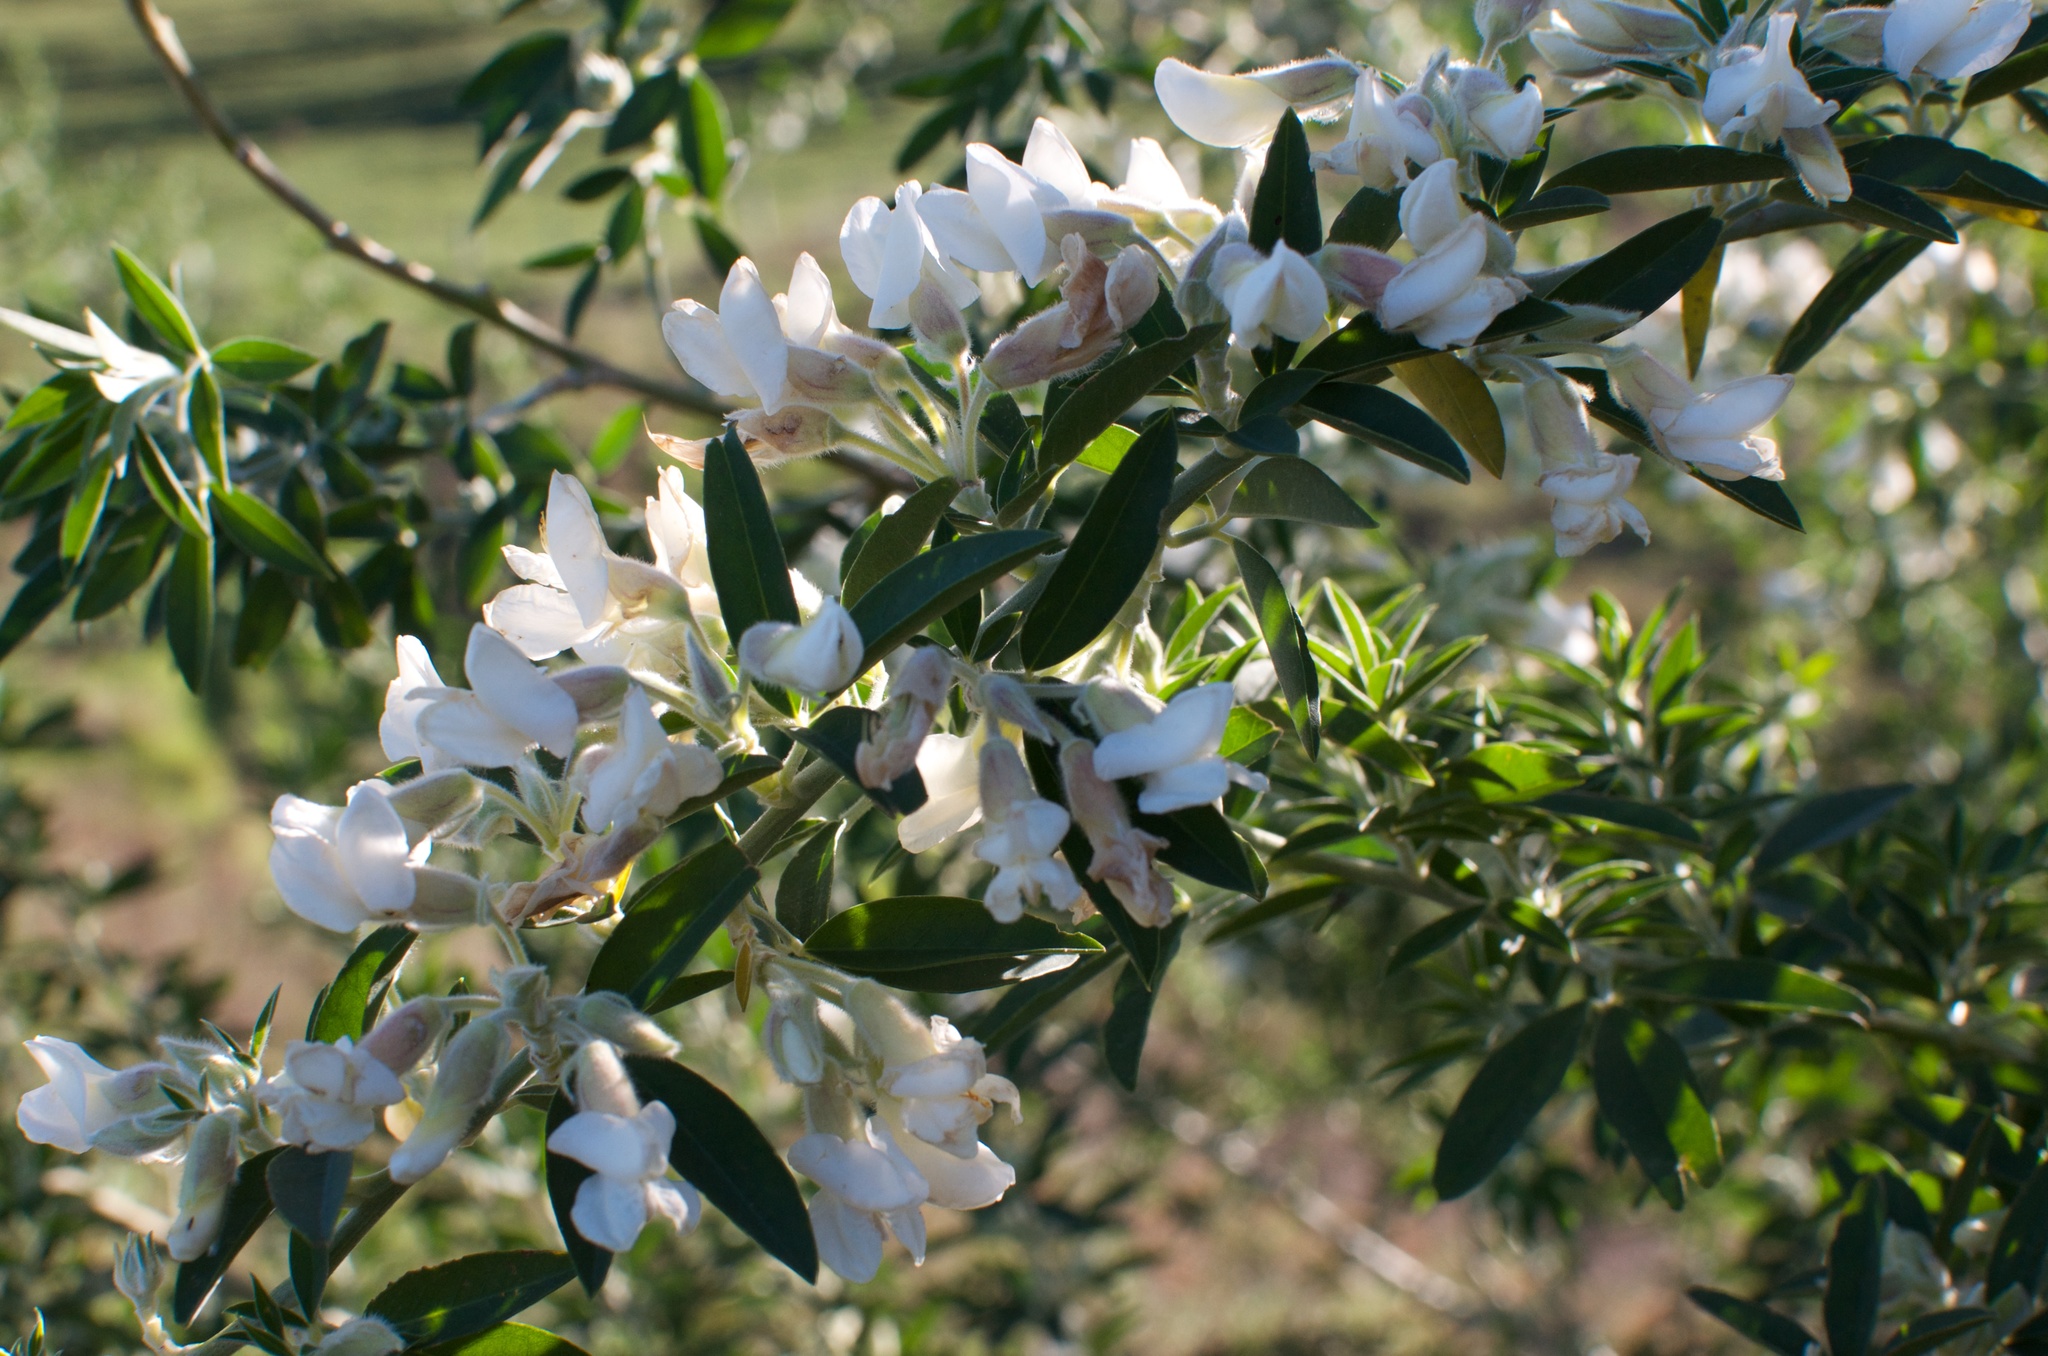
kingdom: Plantae
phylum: Tracheophyta
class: Magnoliopsida
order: Fabales
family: Fabaceae
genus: Chamaecytisus
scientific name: Chamaecytisus prolifer
